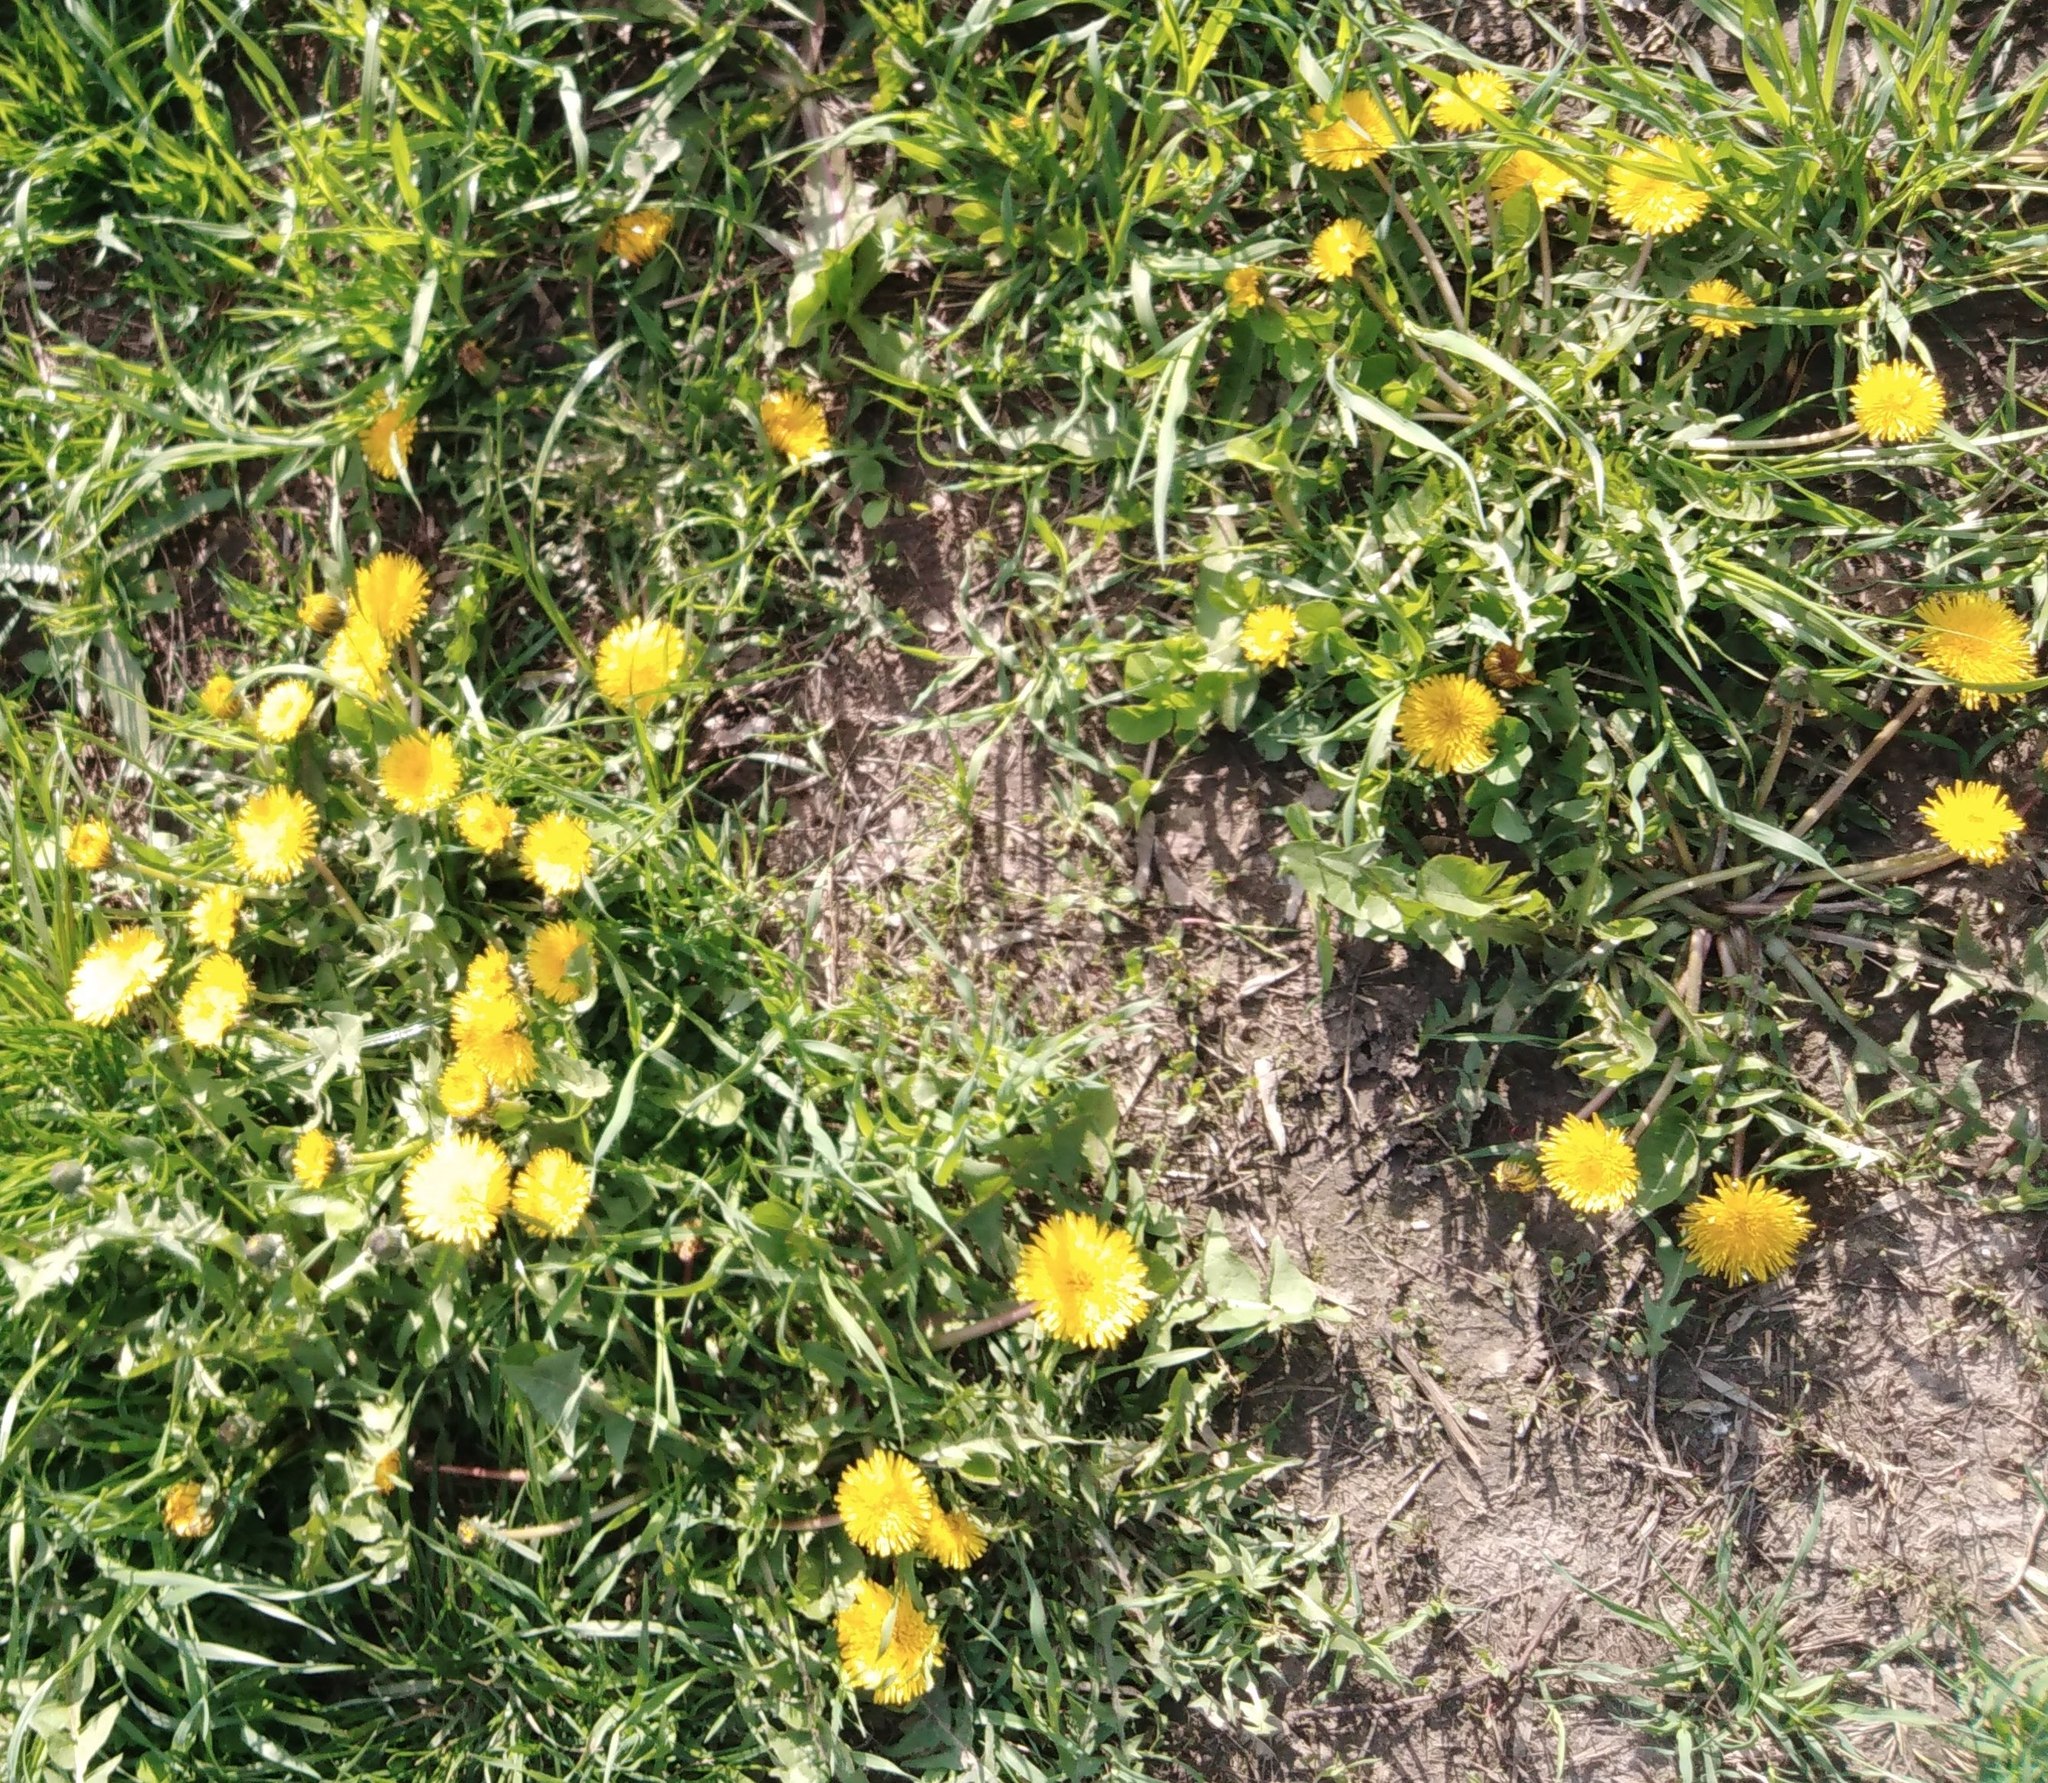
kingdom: Plantae
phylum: Tracheophyta
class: Magnoliopsida
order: Asterales
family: Asteraceae
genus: Taraxacum
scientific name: Taraxacum officinale
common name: Common dandelion
